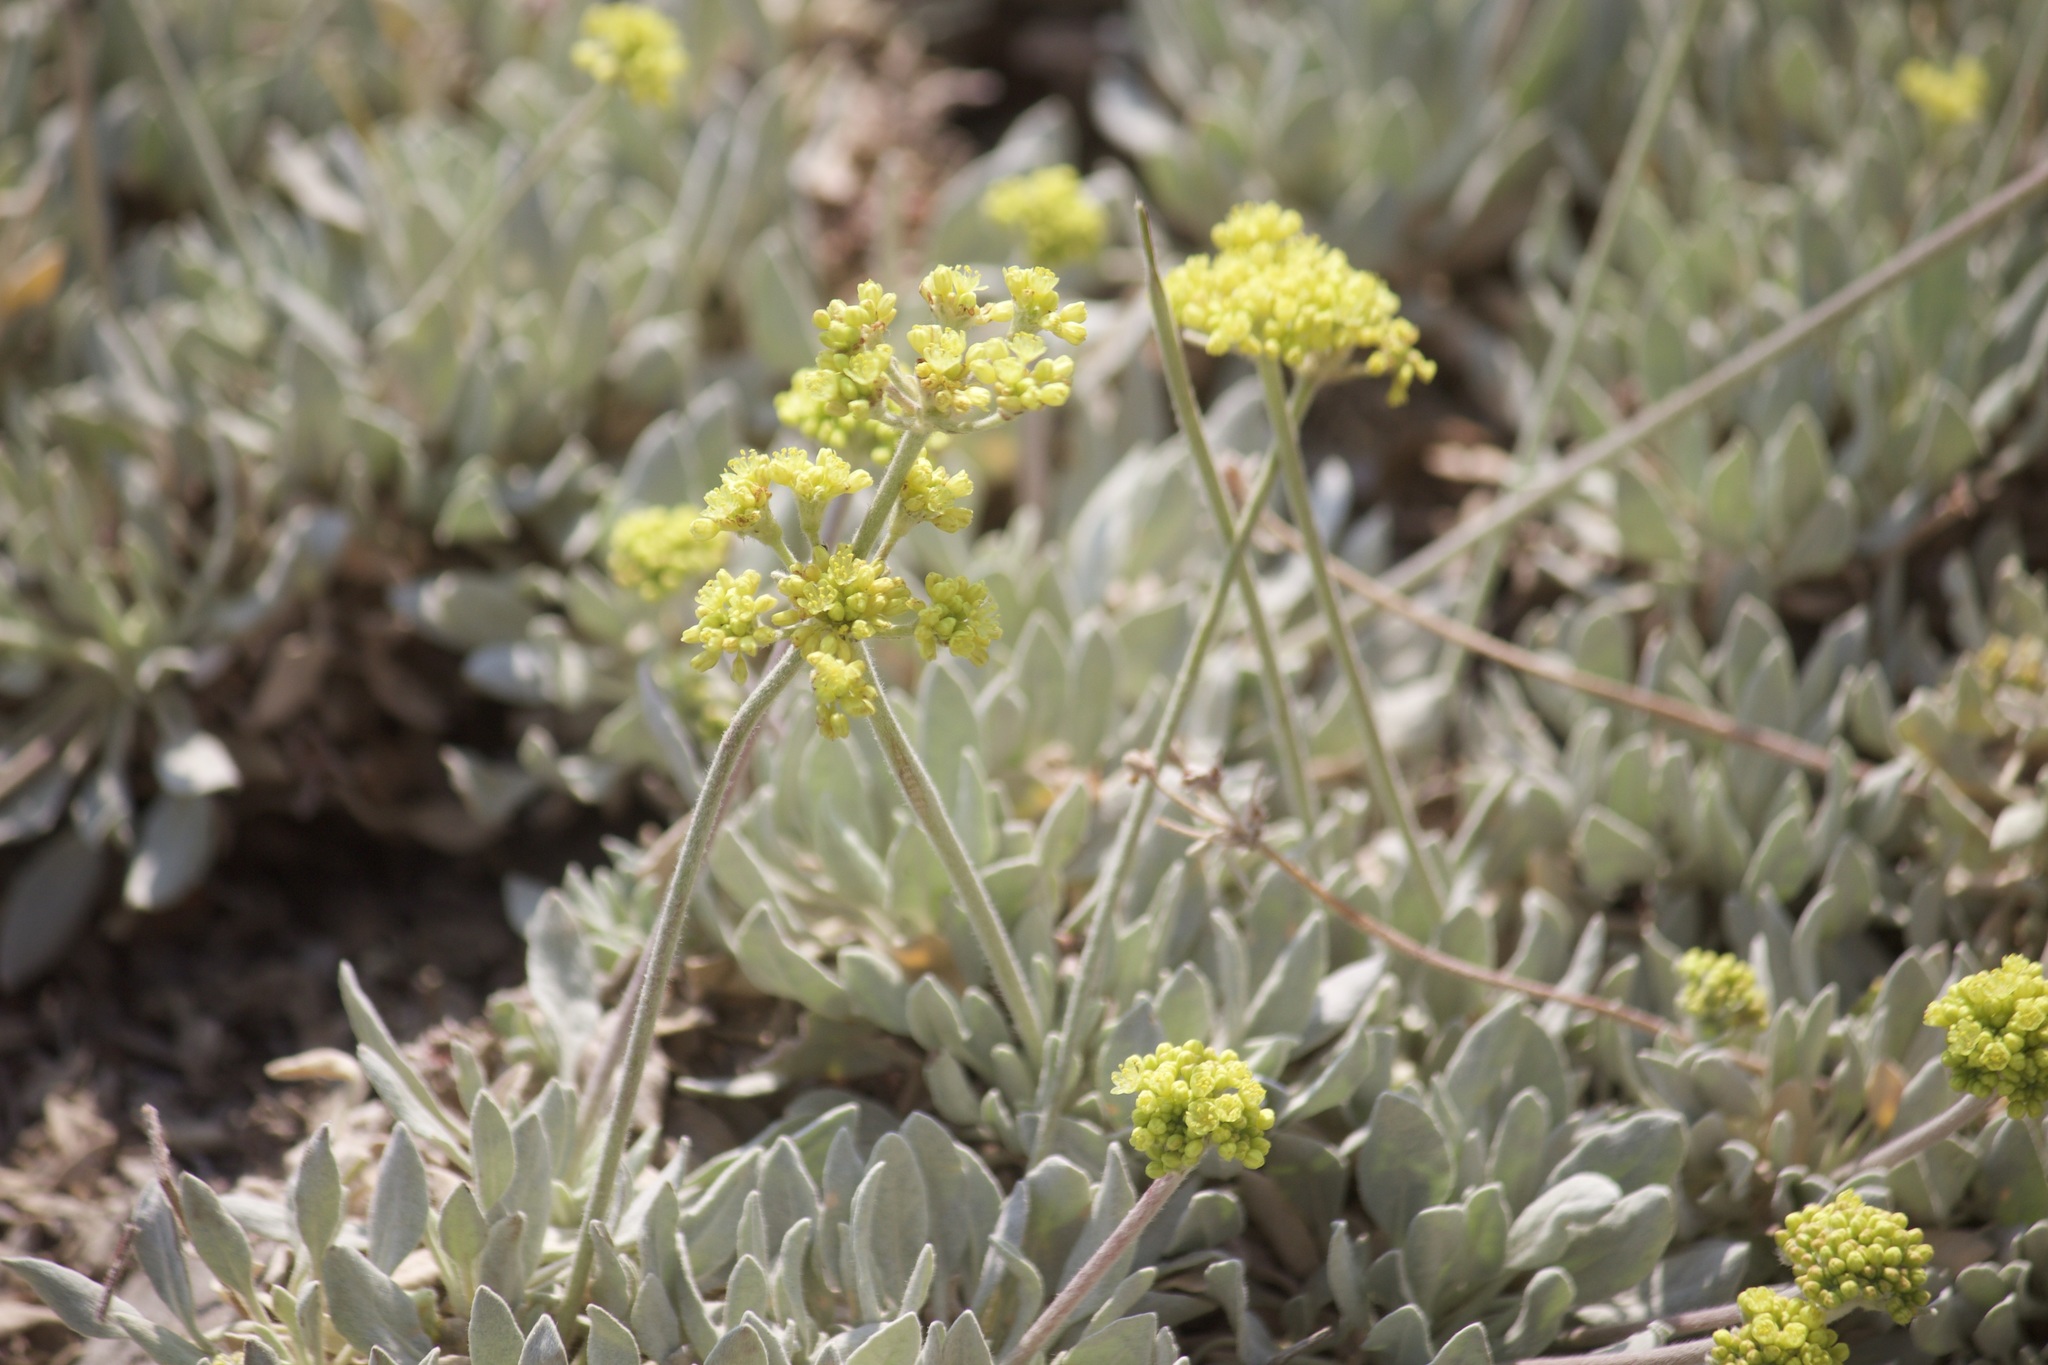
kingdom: Plantae
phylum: Tracheophyta
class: Magnoliopsida
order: Caryophyllales
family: Polygonaceae
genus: Eriogonum
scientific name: Eriogonum incanum
